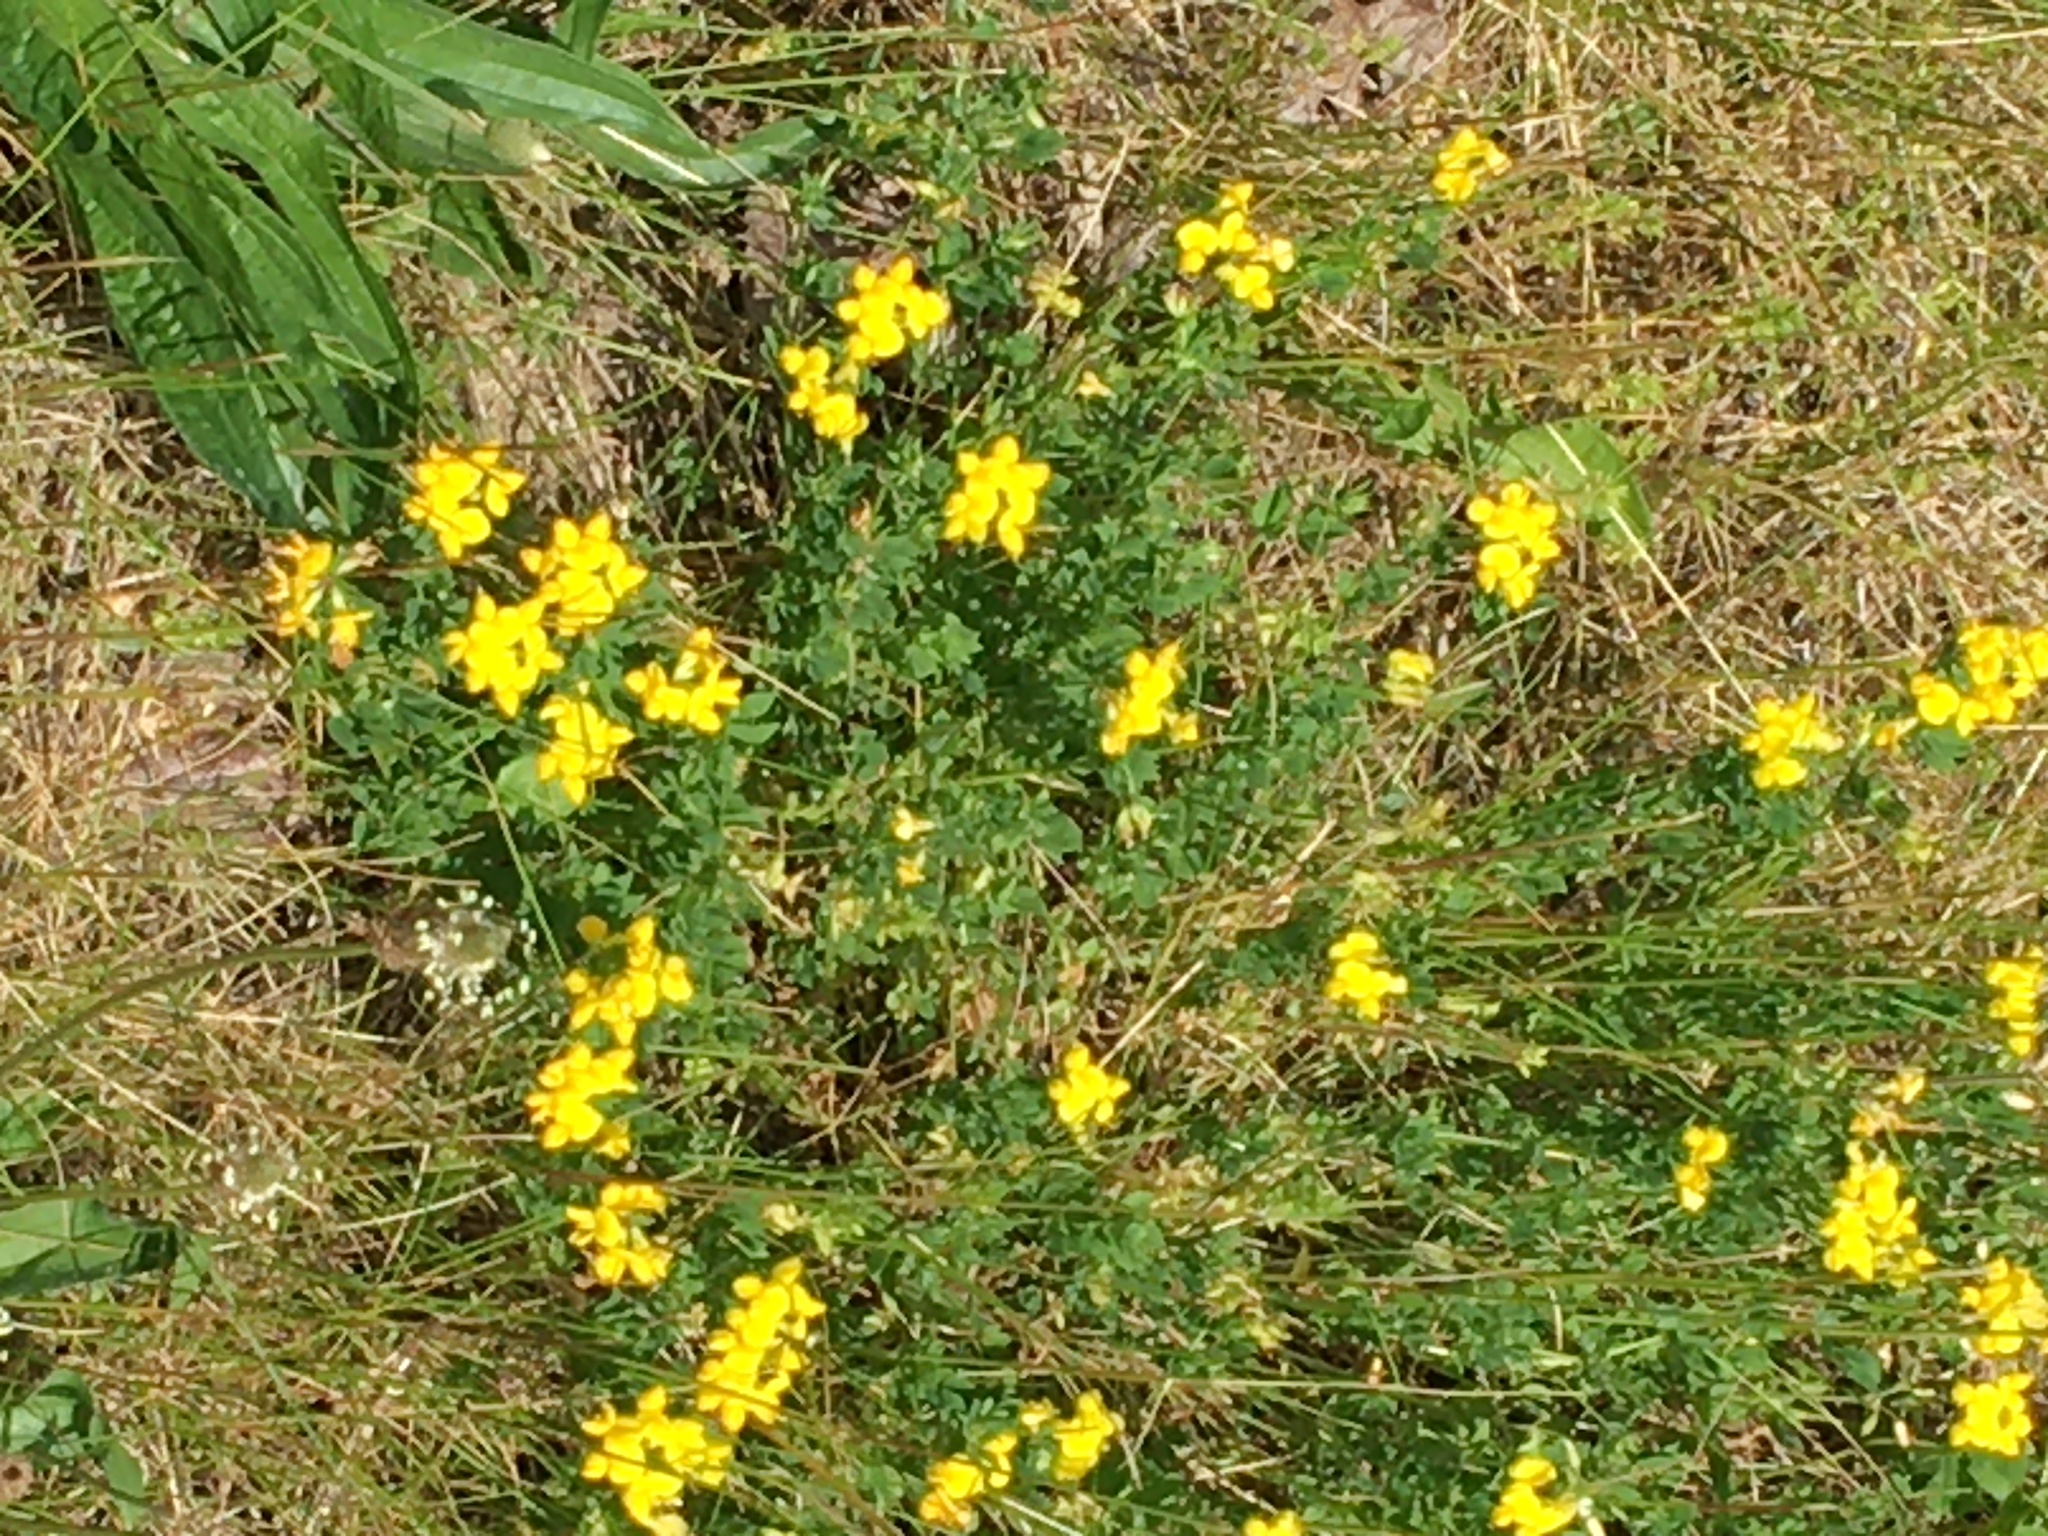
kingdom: Plantae
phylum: Tracheophyta
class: Magnoliopsida
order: Fabales
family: Fabaceae
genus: Lotus
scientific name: Lotus corniculatus
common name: Common bird's-foot-trefoil
